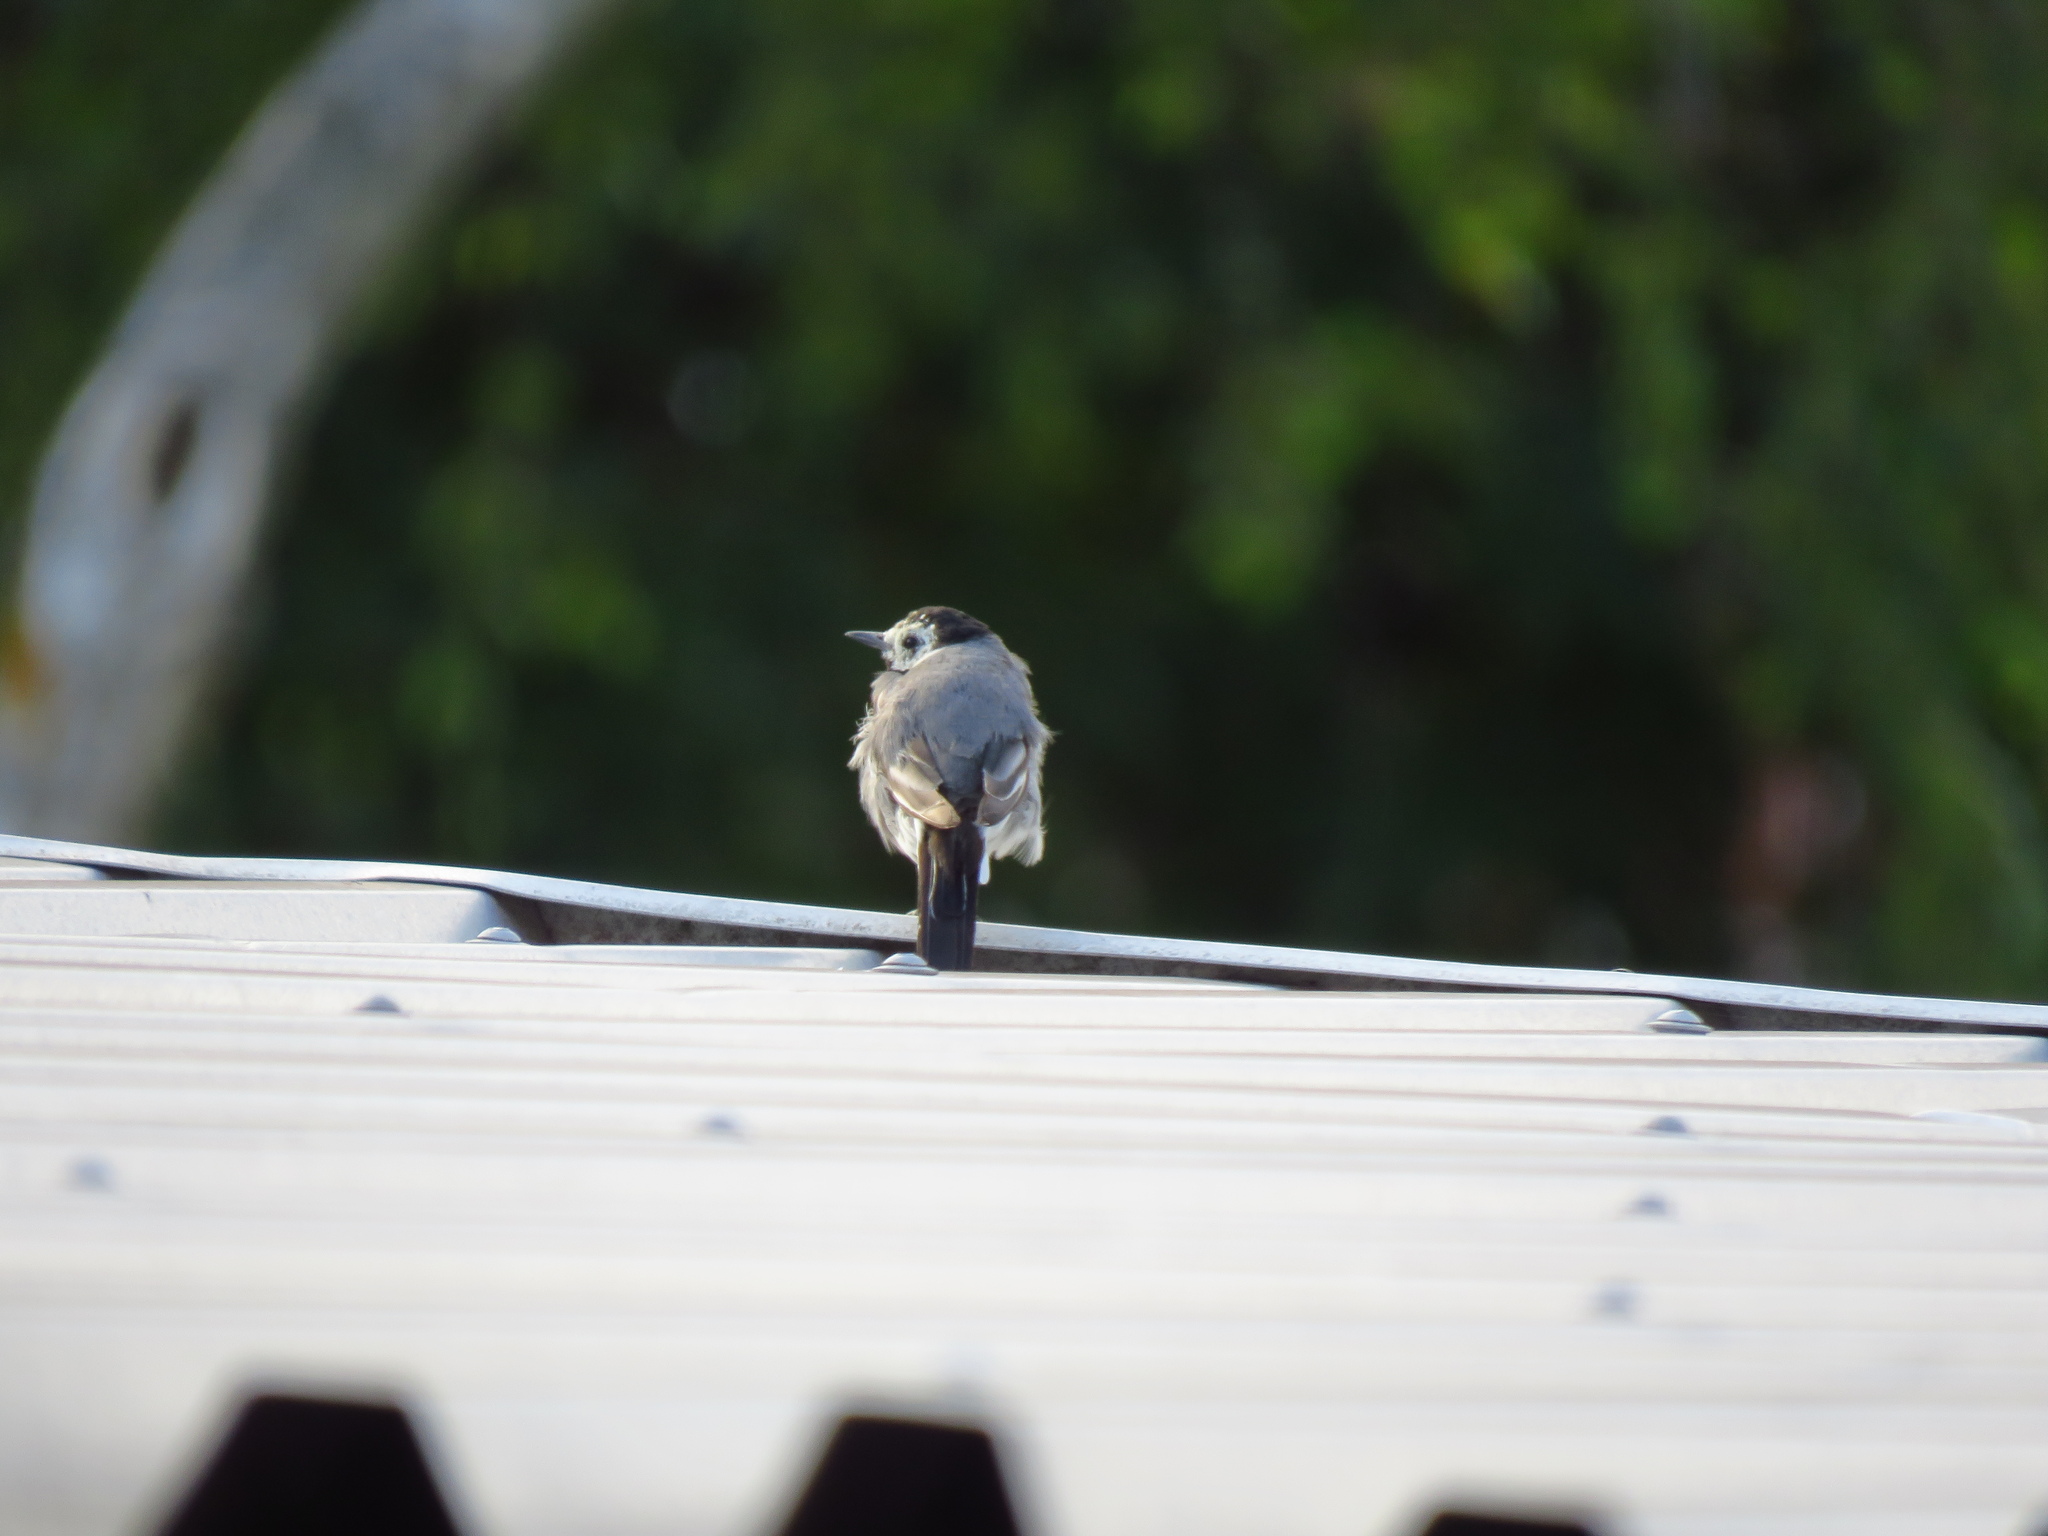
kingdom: Animalia
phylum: Chordata
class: Aves
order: Passeriformes
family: Motacillidae
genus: Motacilla
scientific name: Motacilla alba
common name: White wagtail
